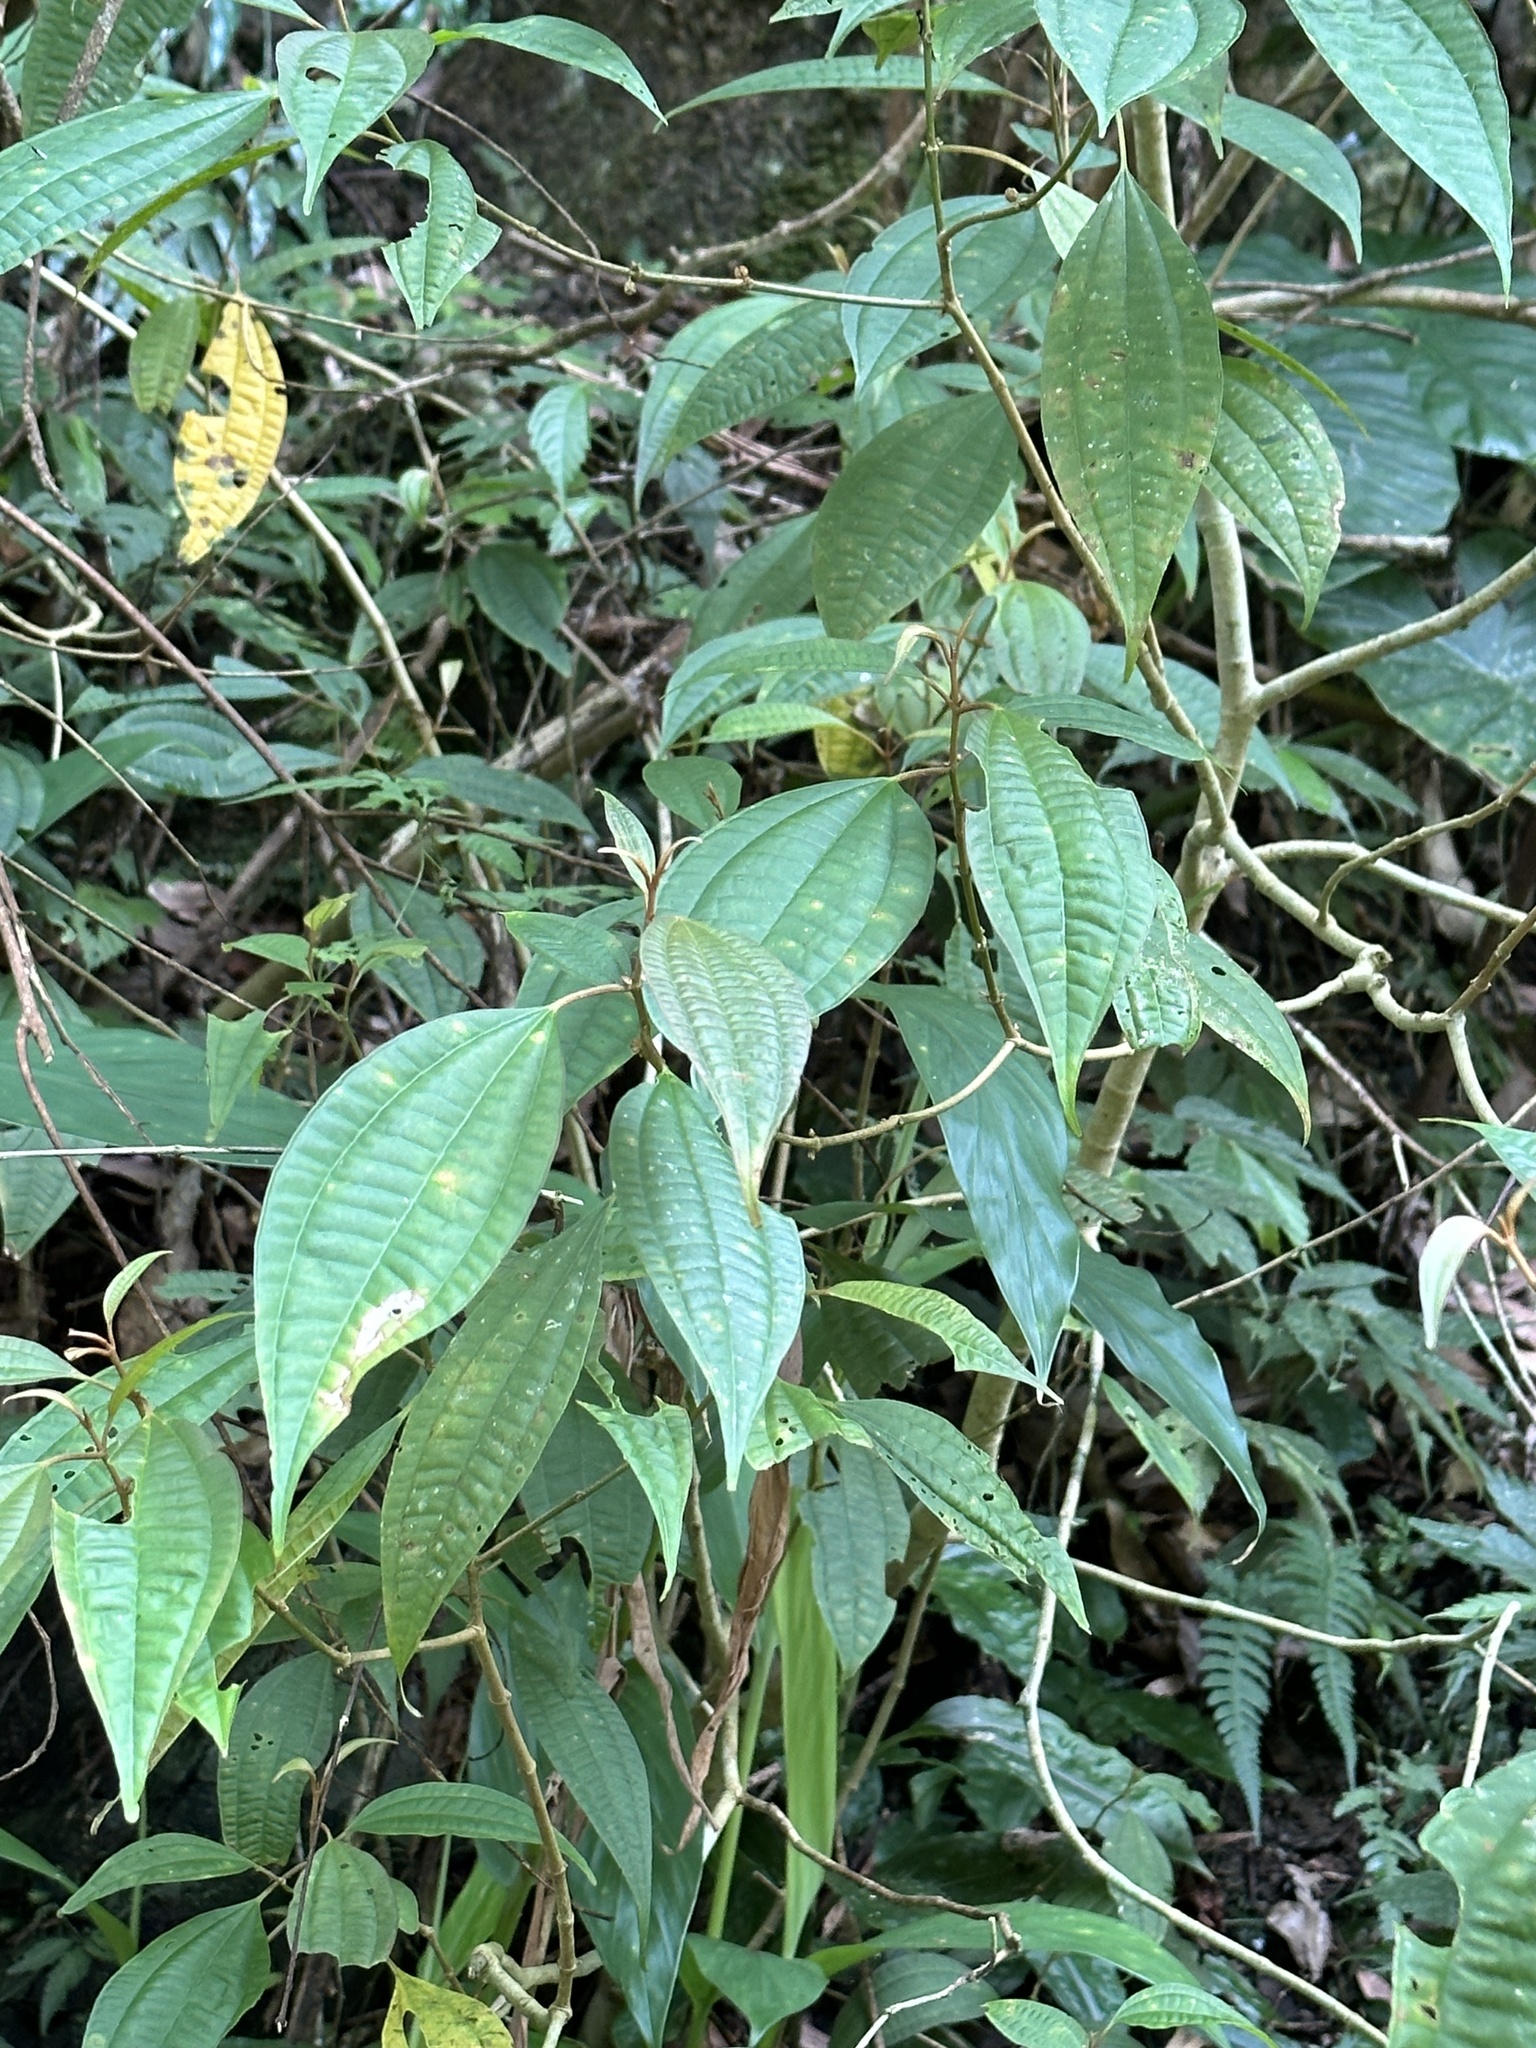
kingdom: Plantae
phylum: Tracheophyta
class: Magnoliopsida
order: Myrtales
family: Melastomataceae
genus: Blastus
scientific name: Blastus cochinchinensis
